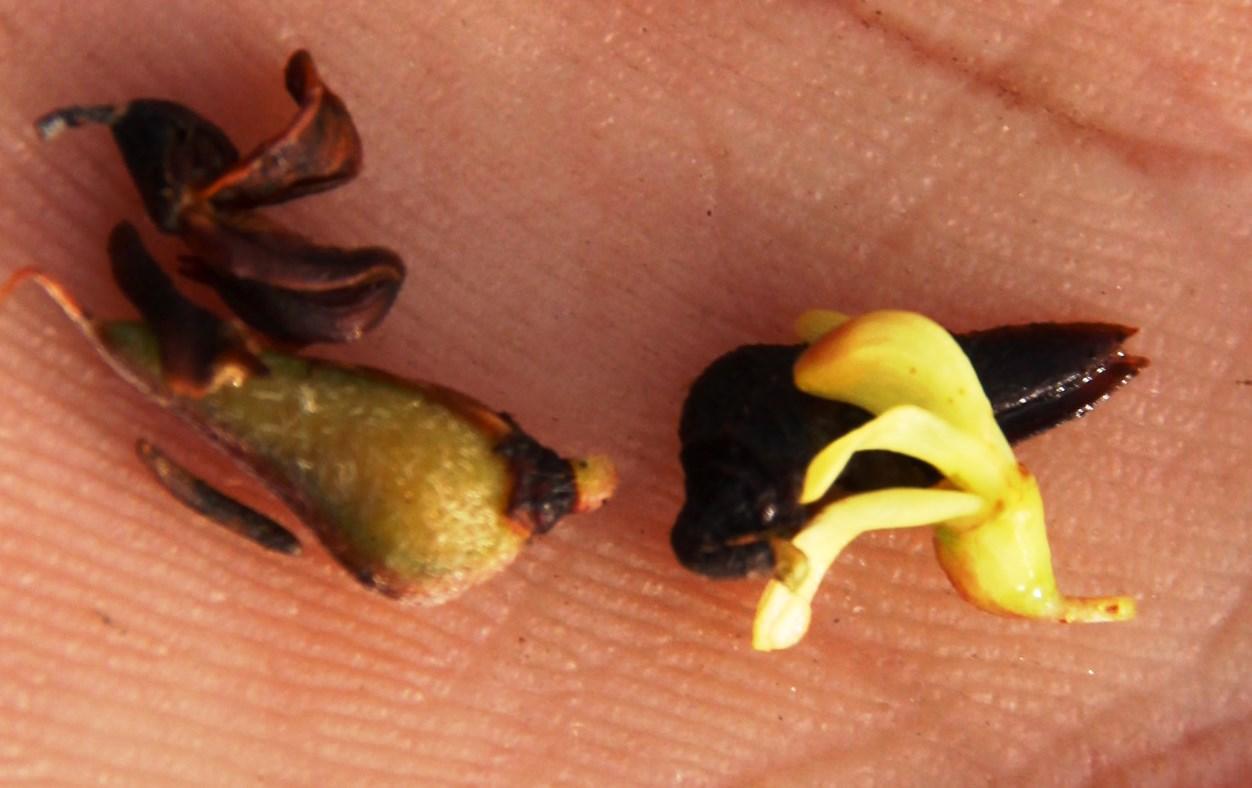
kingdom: Plantae
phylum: Tracheophyta
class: Magnoliopsida
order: Fabales
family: Fabaceae
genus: Aspalathus
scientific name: Aspalathus spinosa
